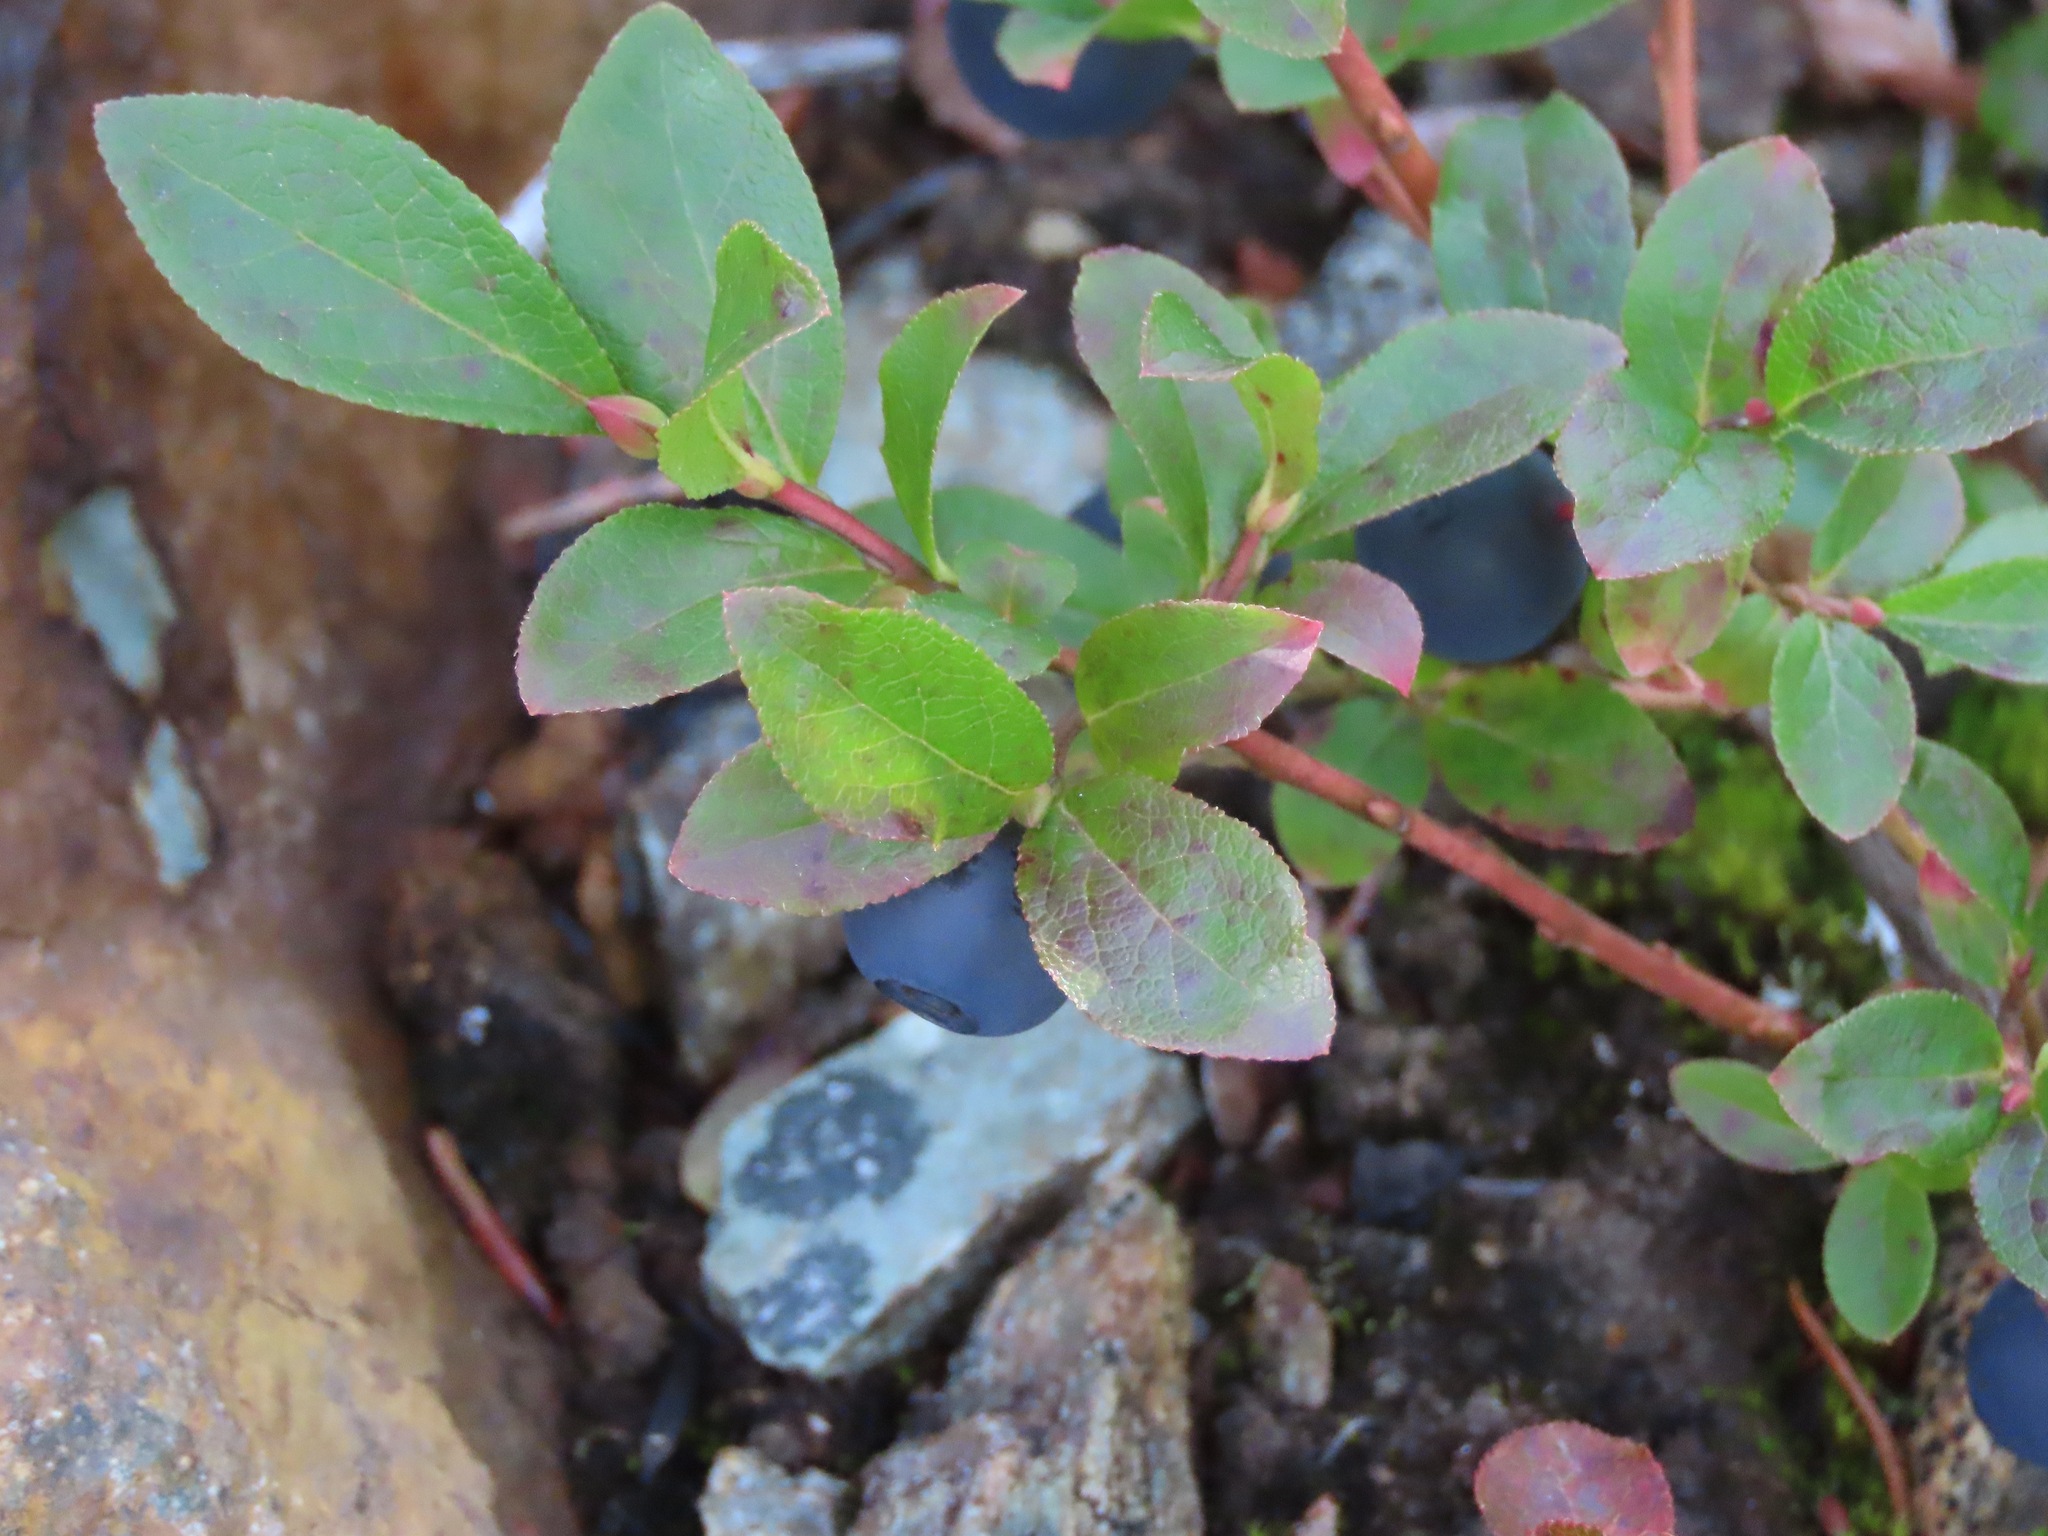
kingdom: Plantae
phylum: Tracheophyta
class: Magnoliopsida
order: Ericales
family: Ericaceae
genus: Vaccinium
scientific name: Vaccinium cespitosum
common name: Dwarf bilberry
